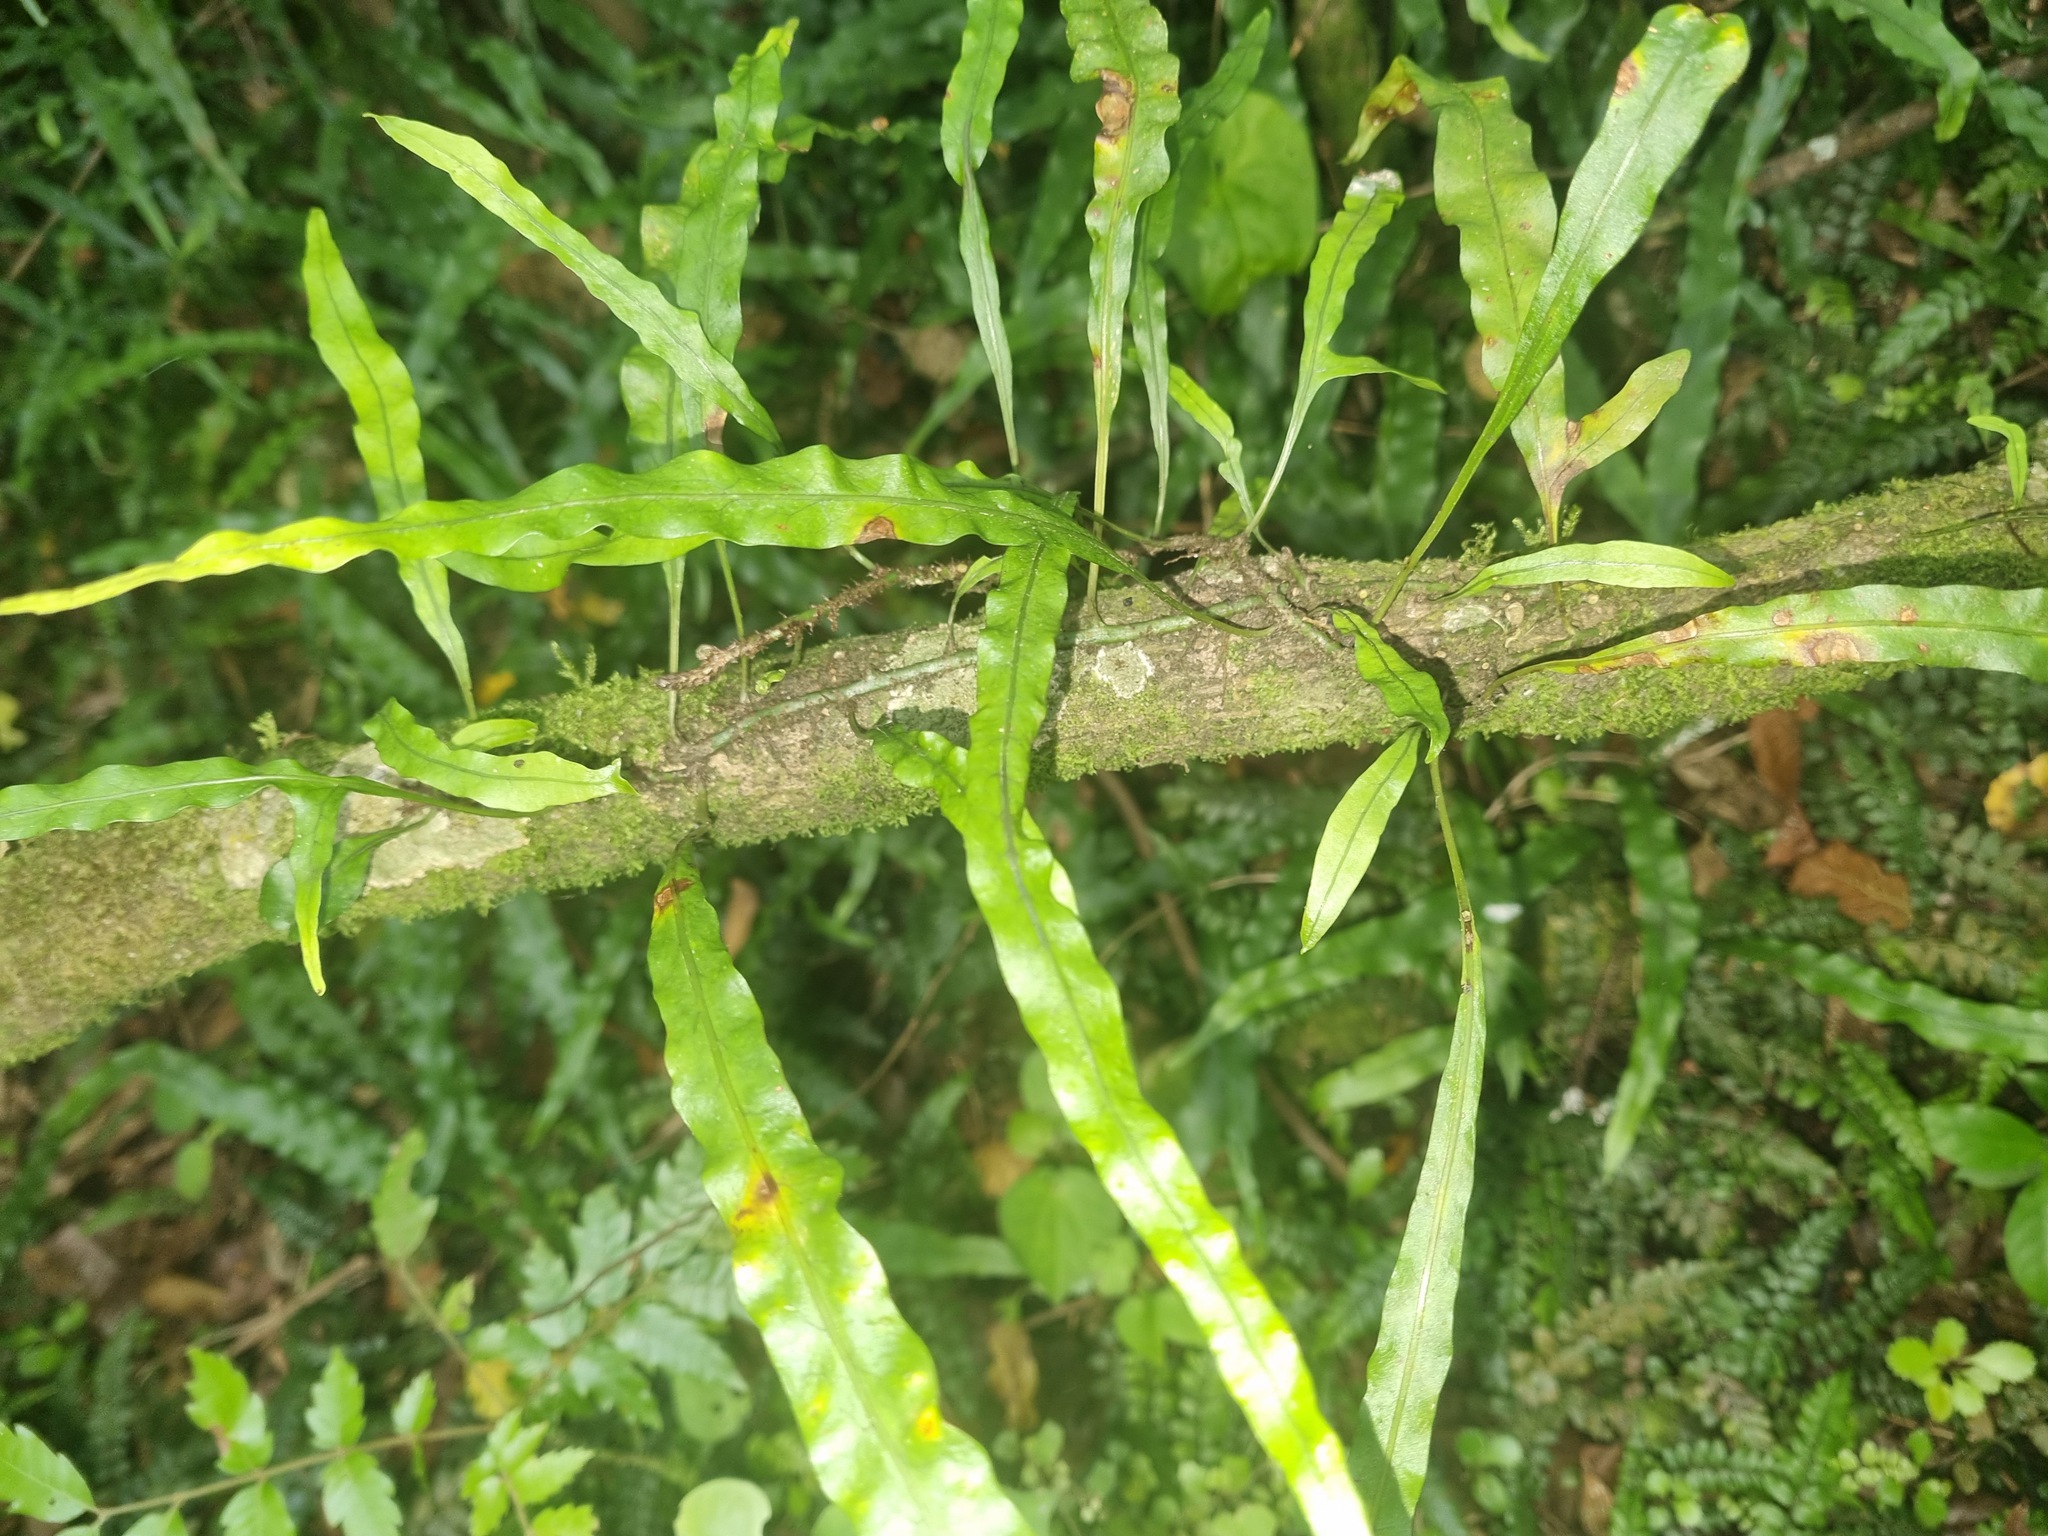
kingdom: Plantae
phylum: Tracheophyta
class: Polypodiopsida
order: Polypodiales
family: Polypodiaceae
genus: Lecanopteris
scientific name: Lecanopteris scandens
